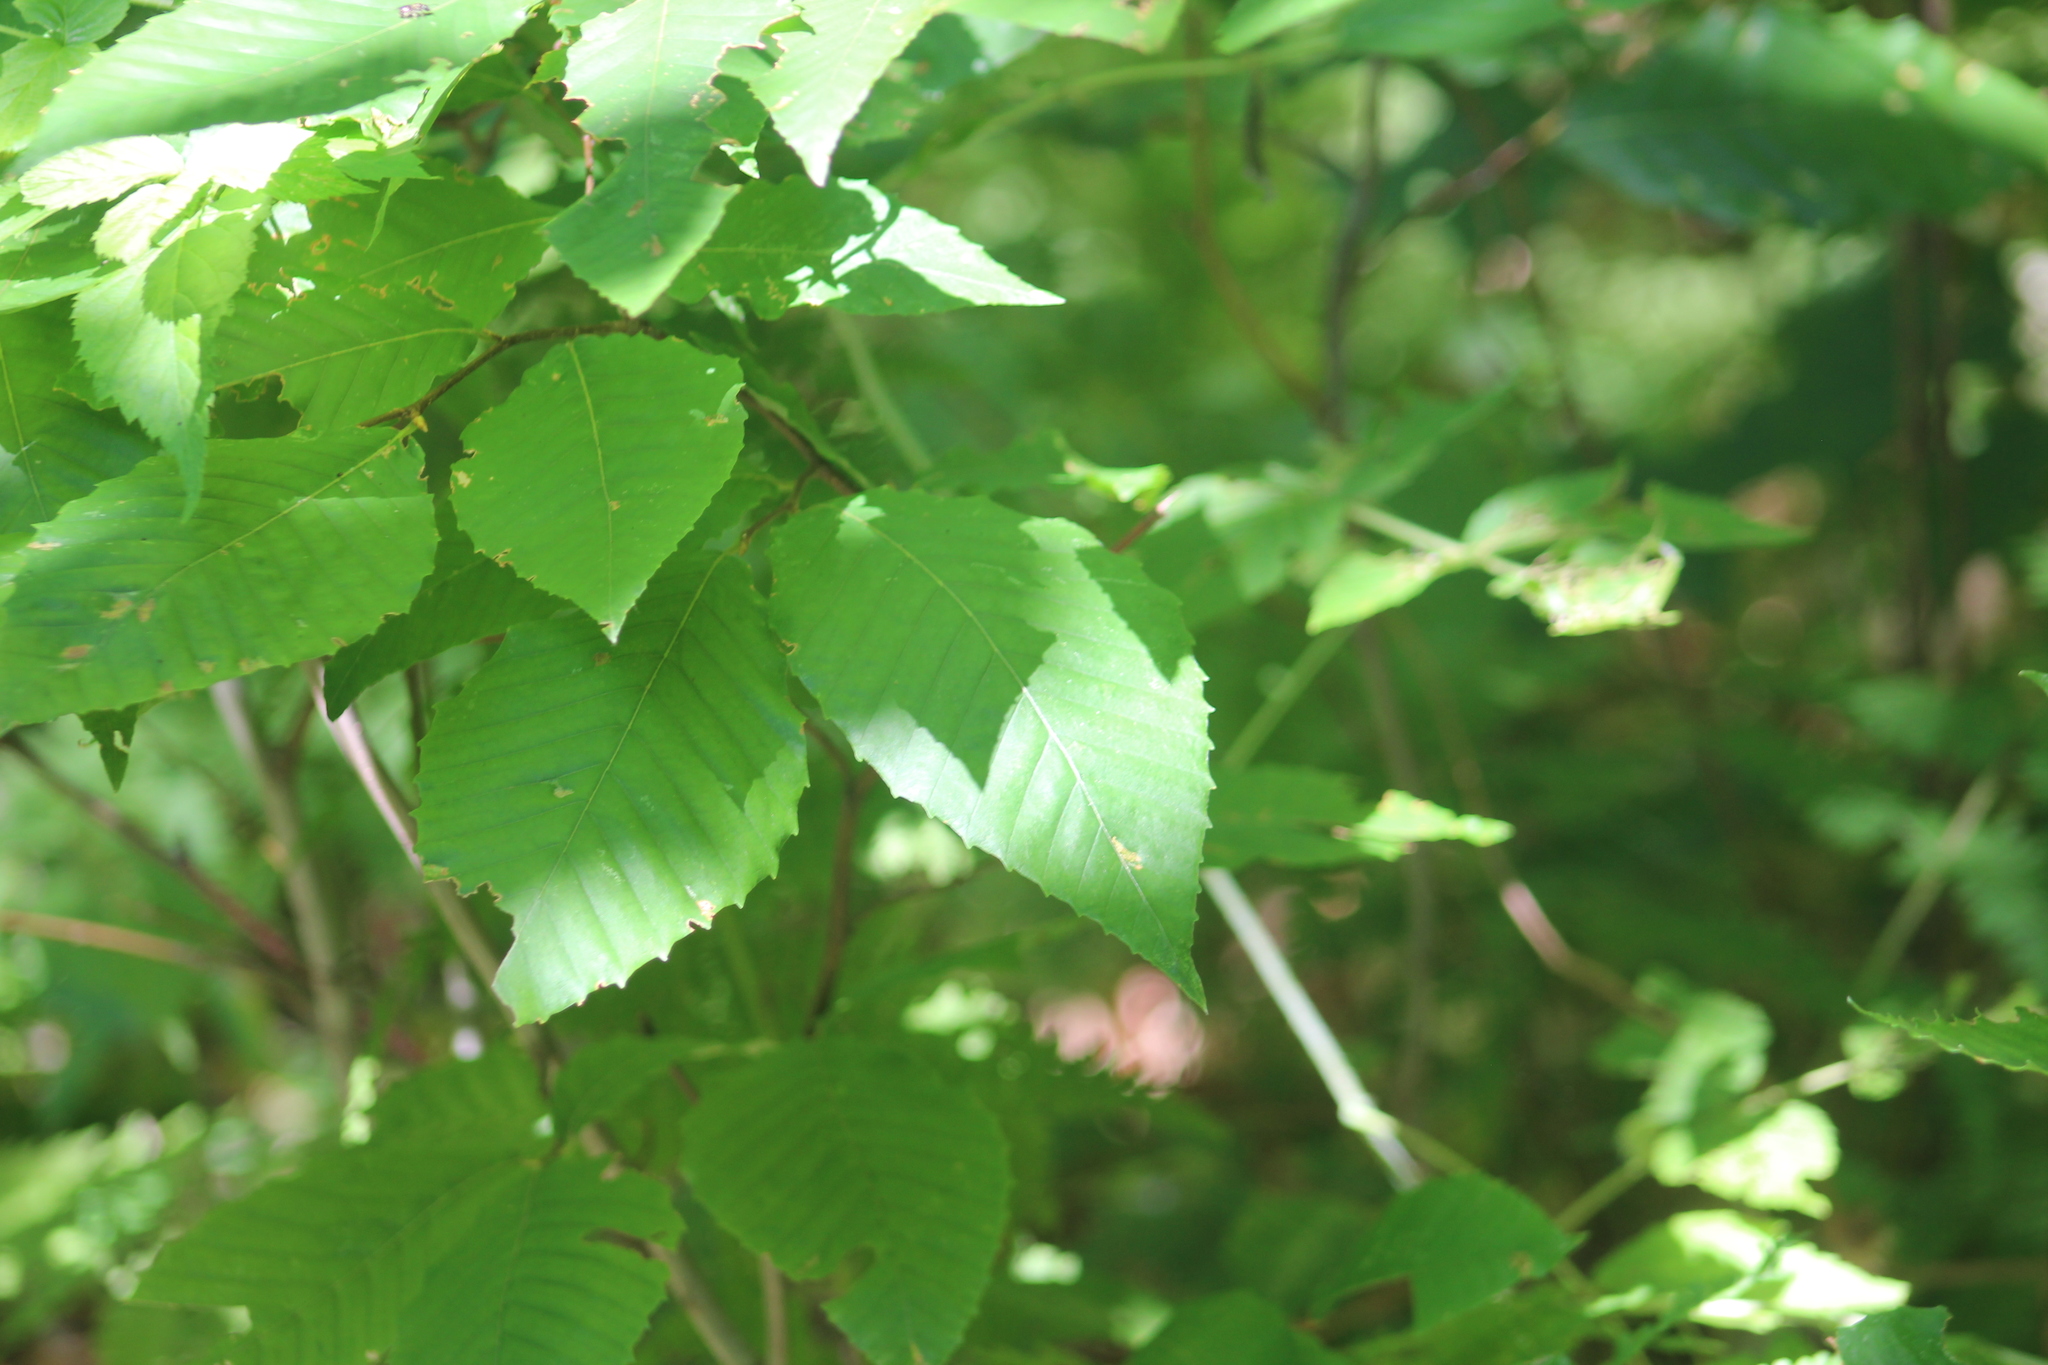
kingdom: Plantae
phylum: Tracheophyta
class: Magnoliopsida
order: Fagales
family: Fagaceae
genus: Fagus
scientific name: Fagus grandifolia
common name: American beech
